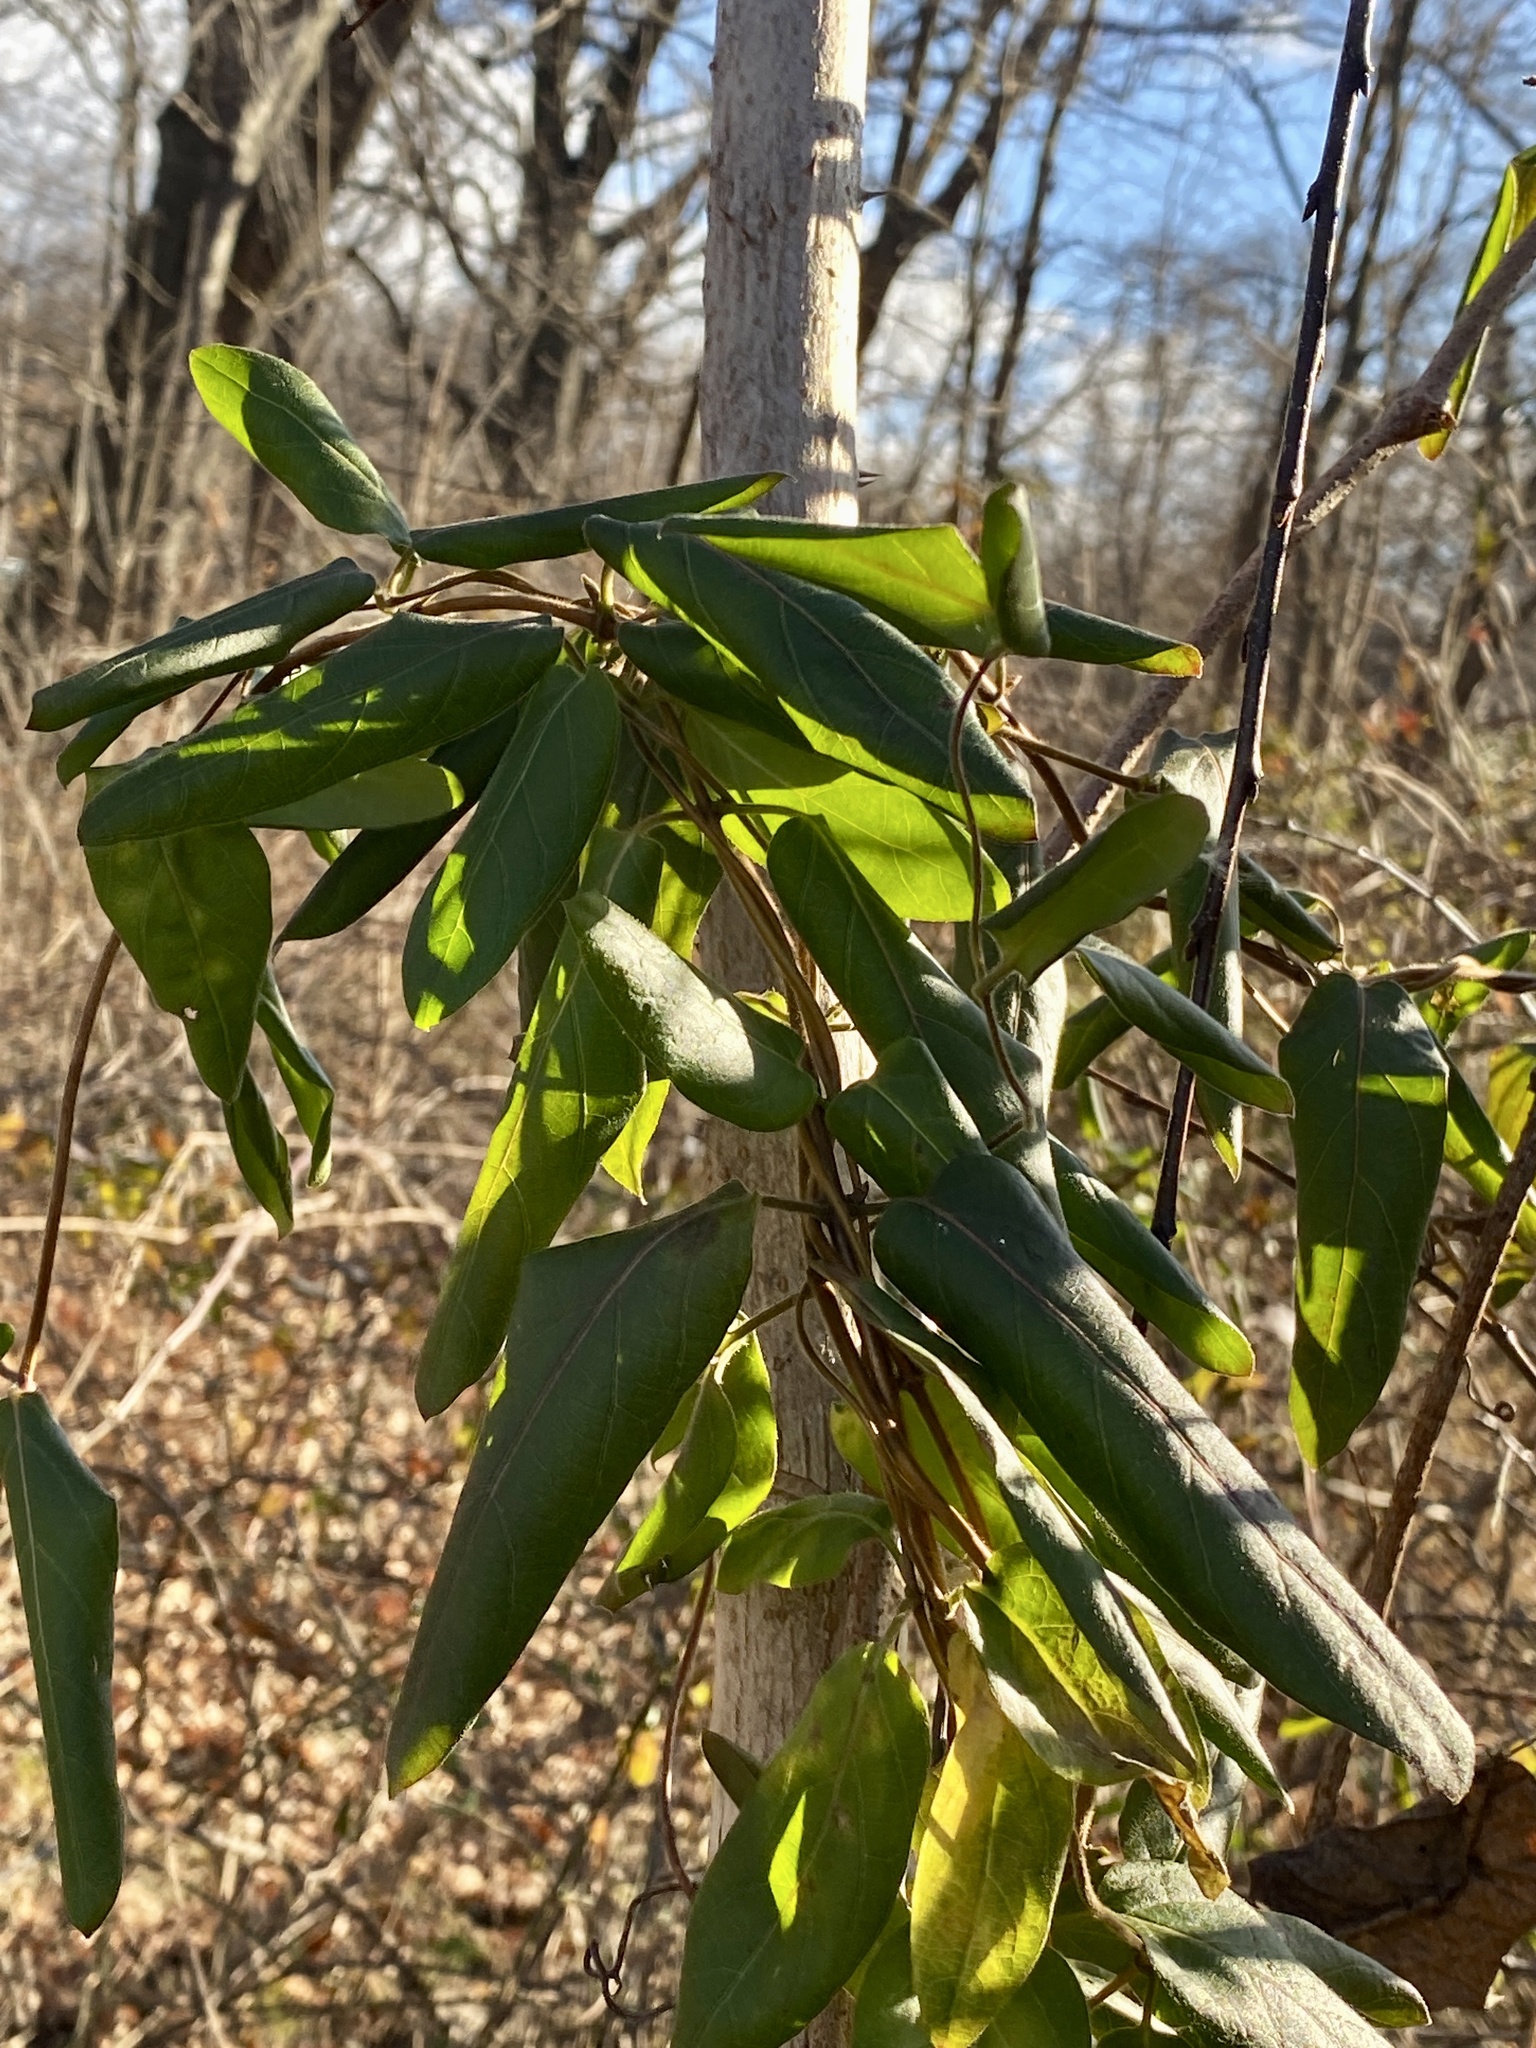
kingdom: Plantae
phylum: Tracheophyta
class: Magnoliopsida
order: Dipsacales
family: Caprifoliaceae
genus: Lonicera
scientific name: Lonicera japonica
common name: Japanese honeysuckle
